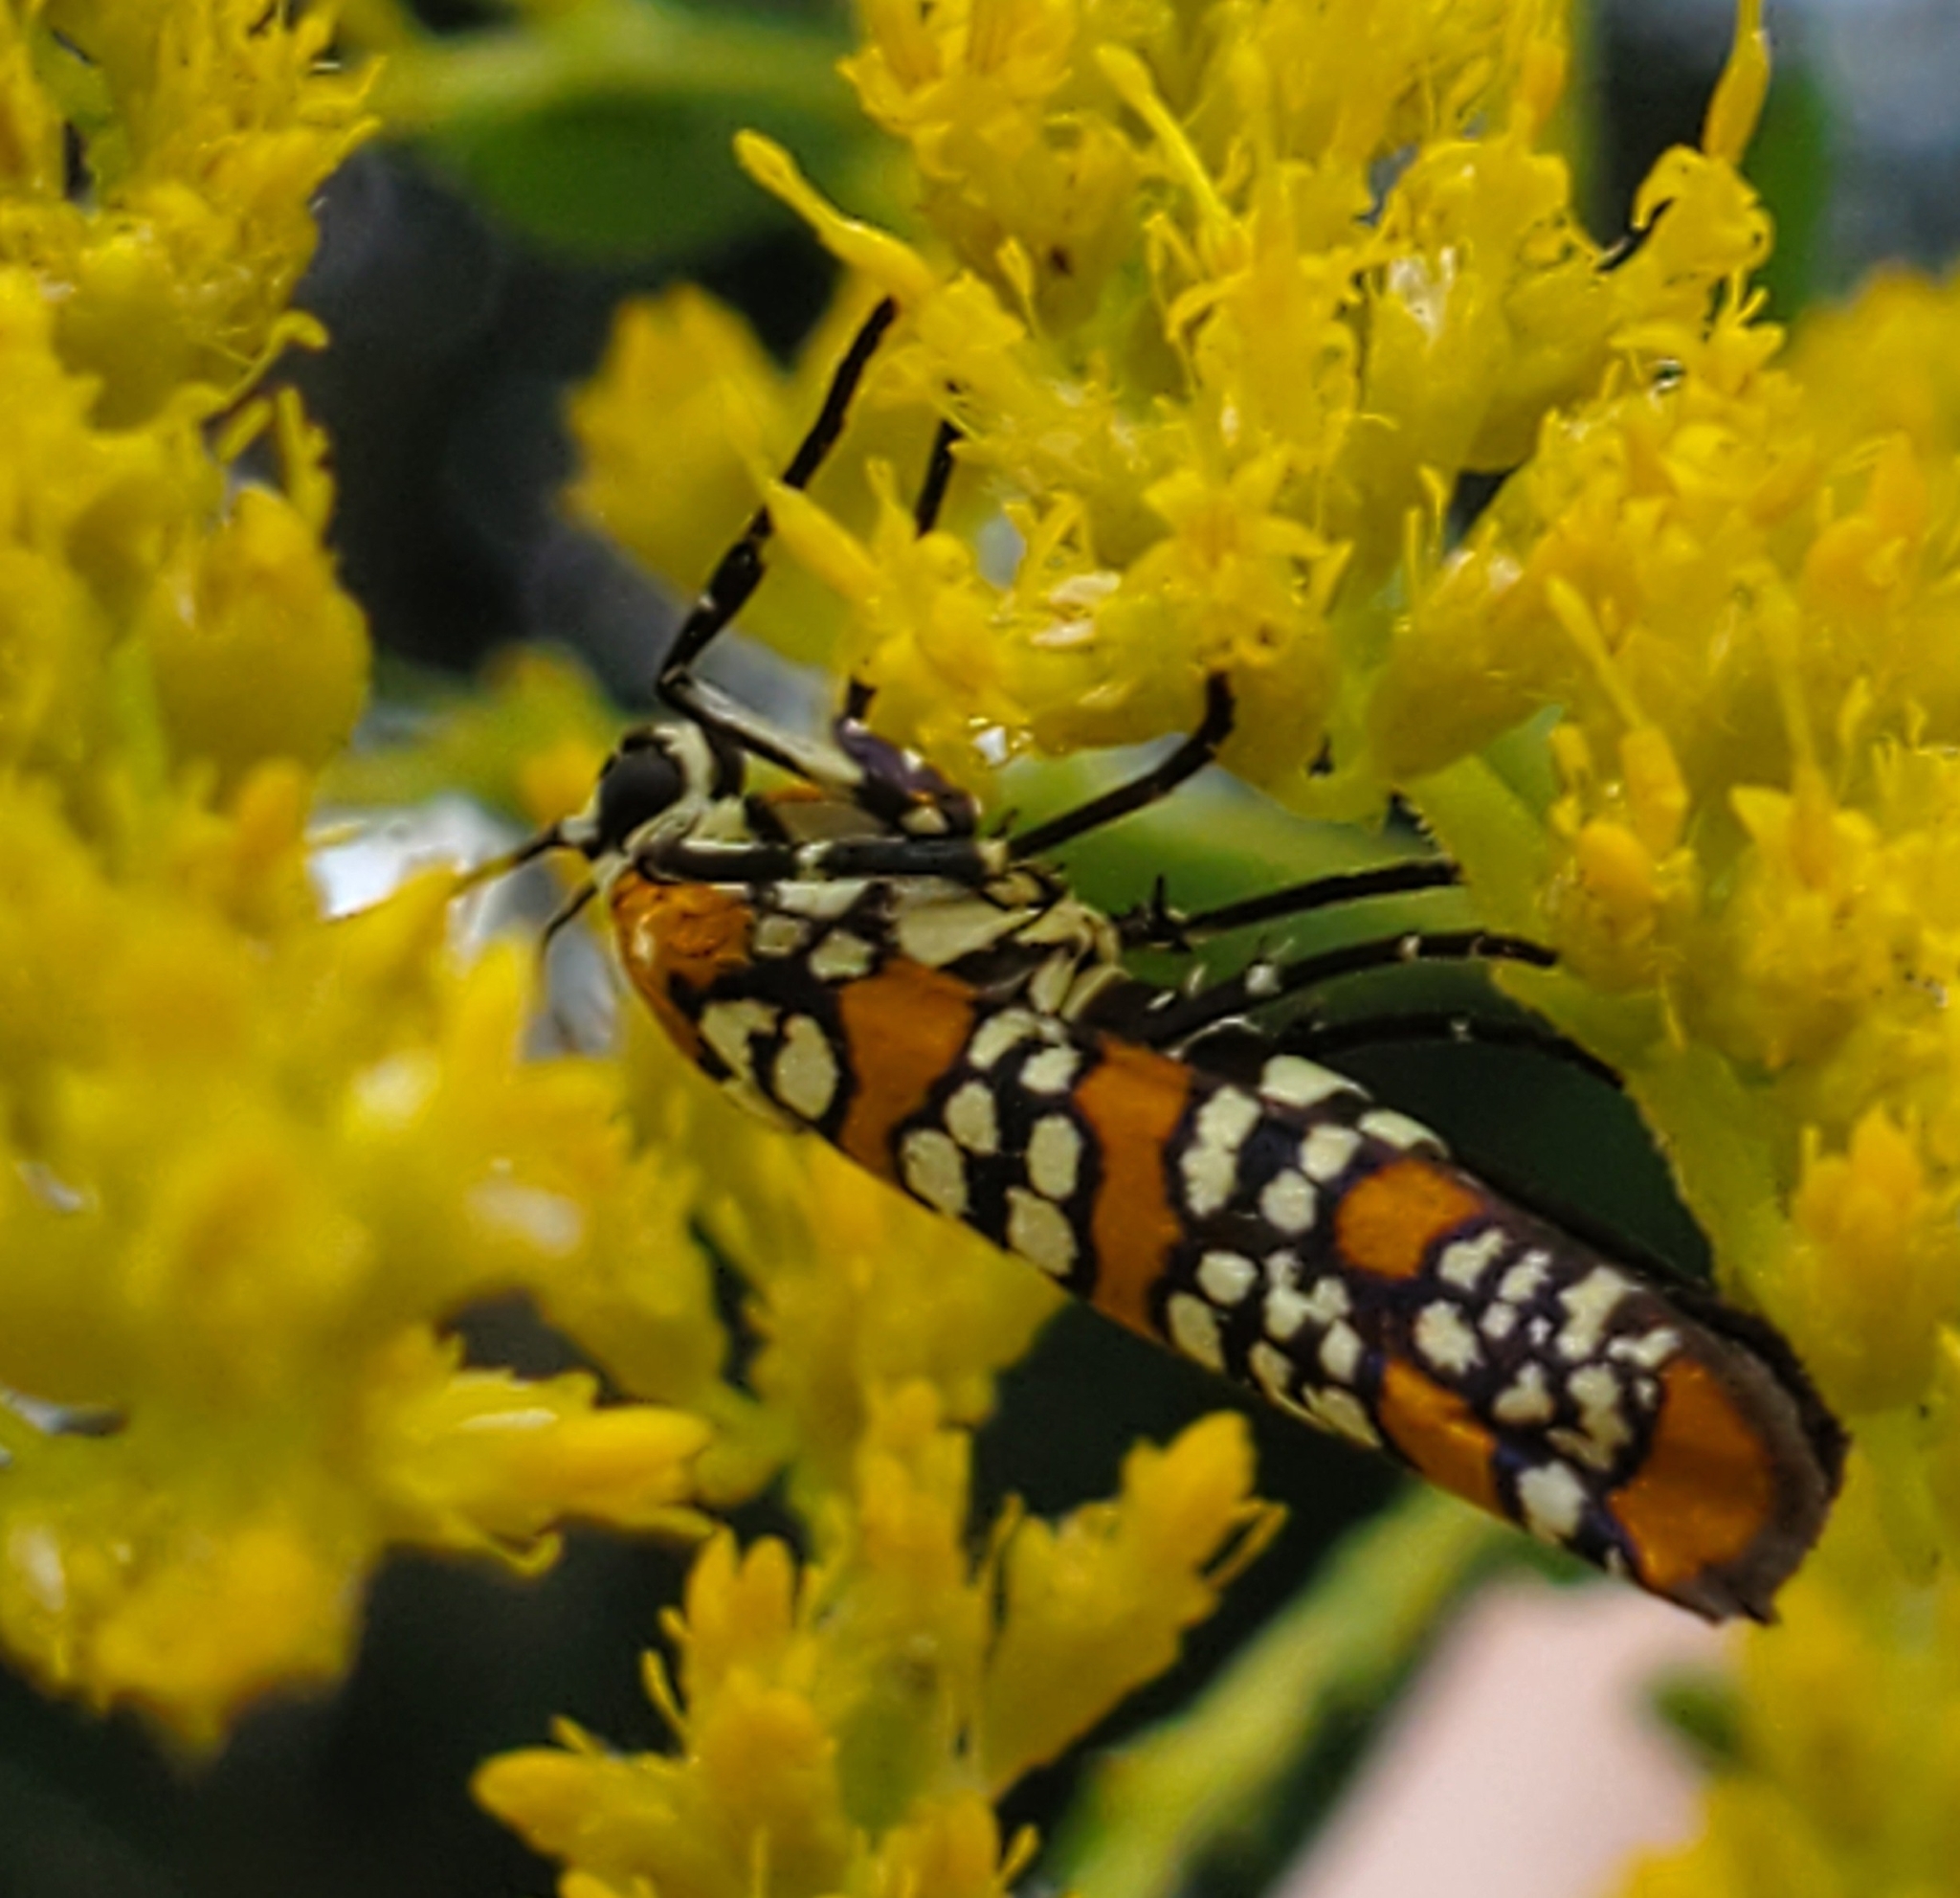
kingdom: Animalia
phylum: Arthropoda
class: Insecta
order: Lepidoptera
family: Attevidae
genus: Atteva
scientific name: Atteva punctella
